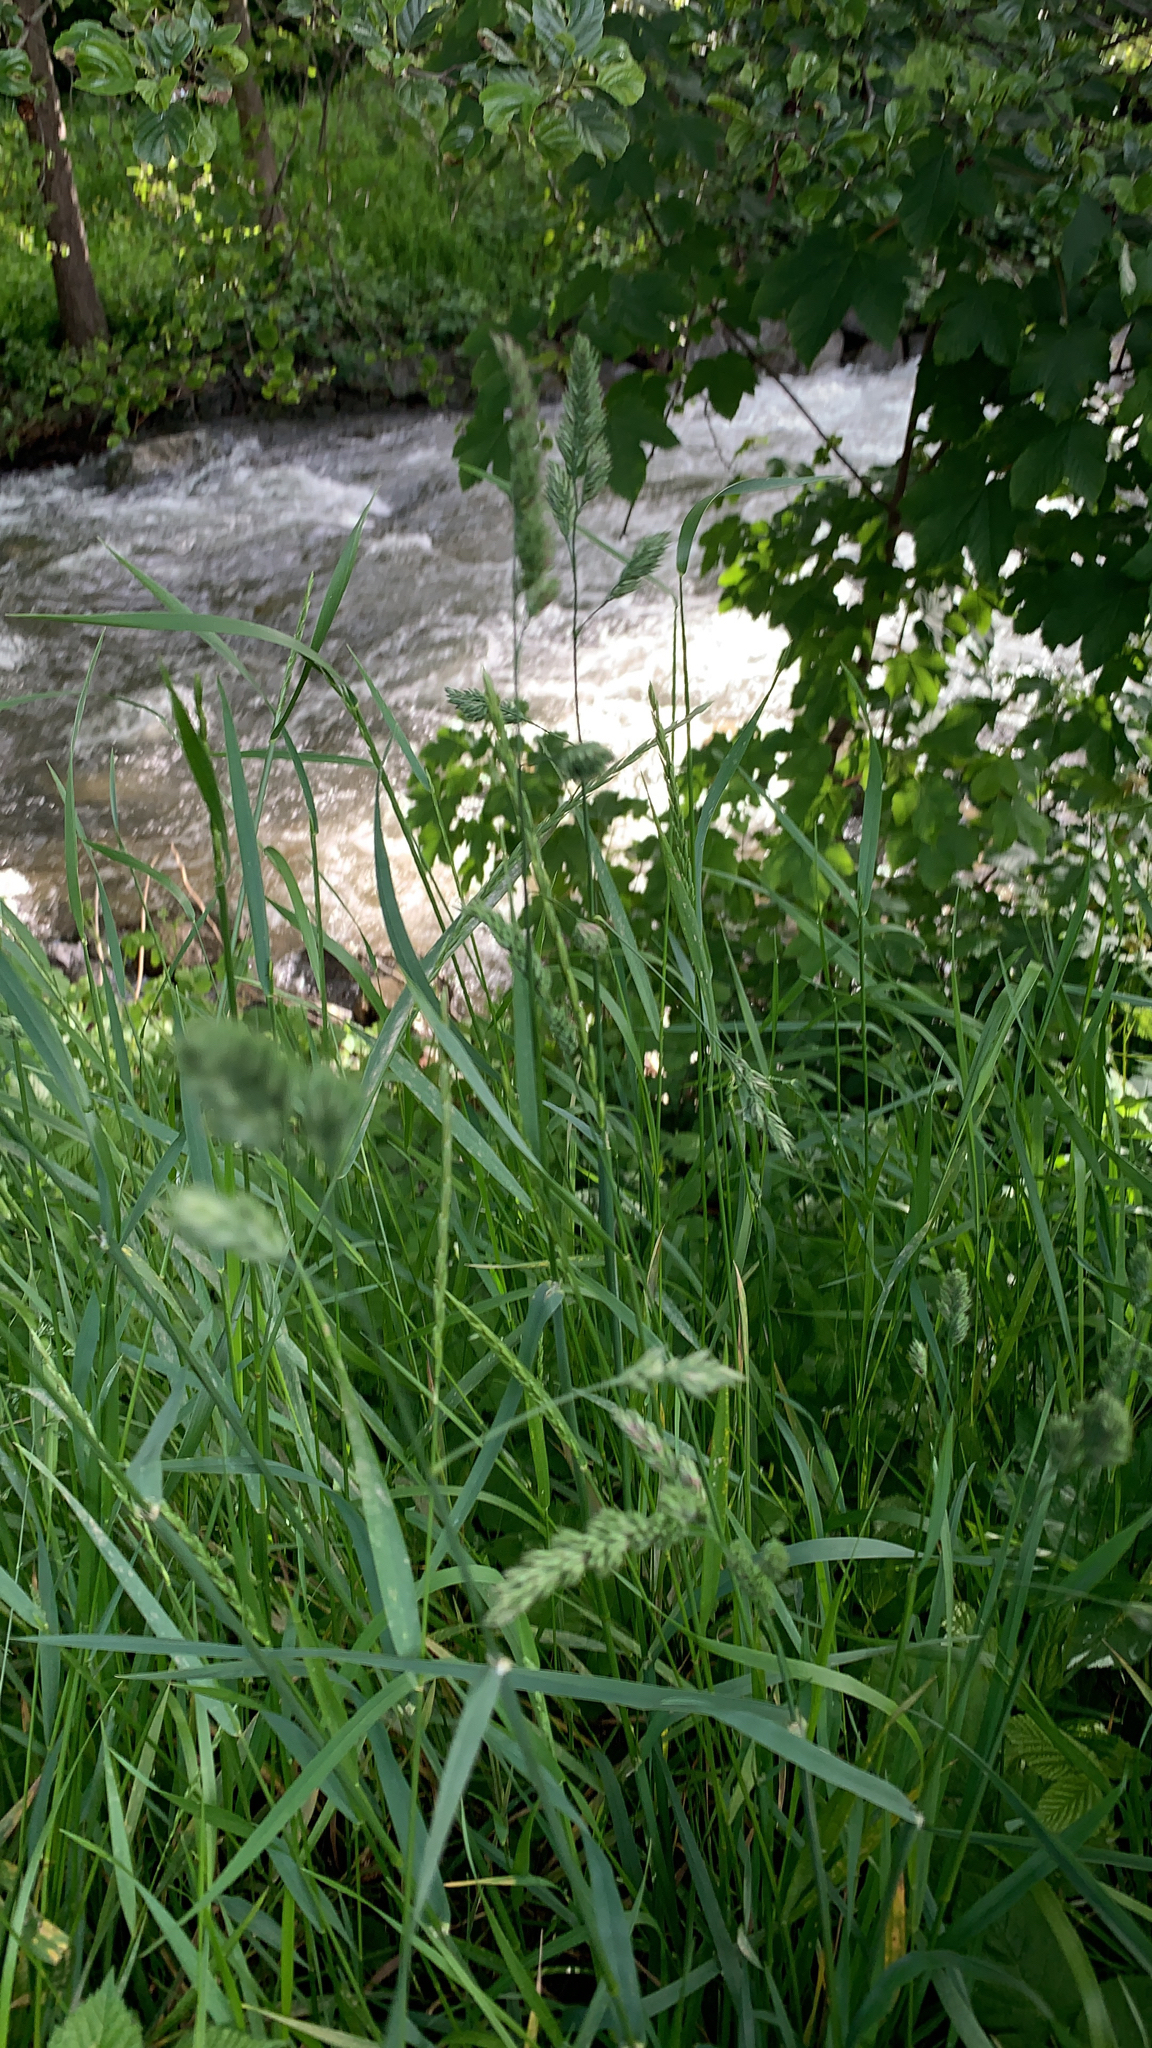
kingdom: Plantae
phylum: Tracheophyta
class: Liliopsida
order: Poales
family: Poaceae
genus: Dactylis
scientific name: Dactylis glomerata
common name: Orchardgrass
